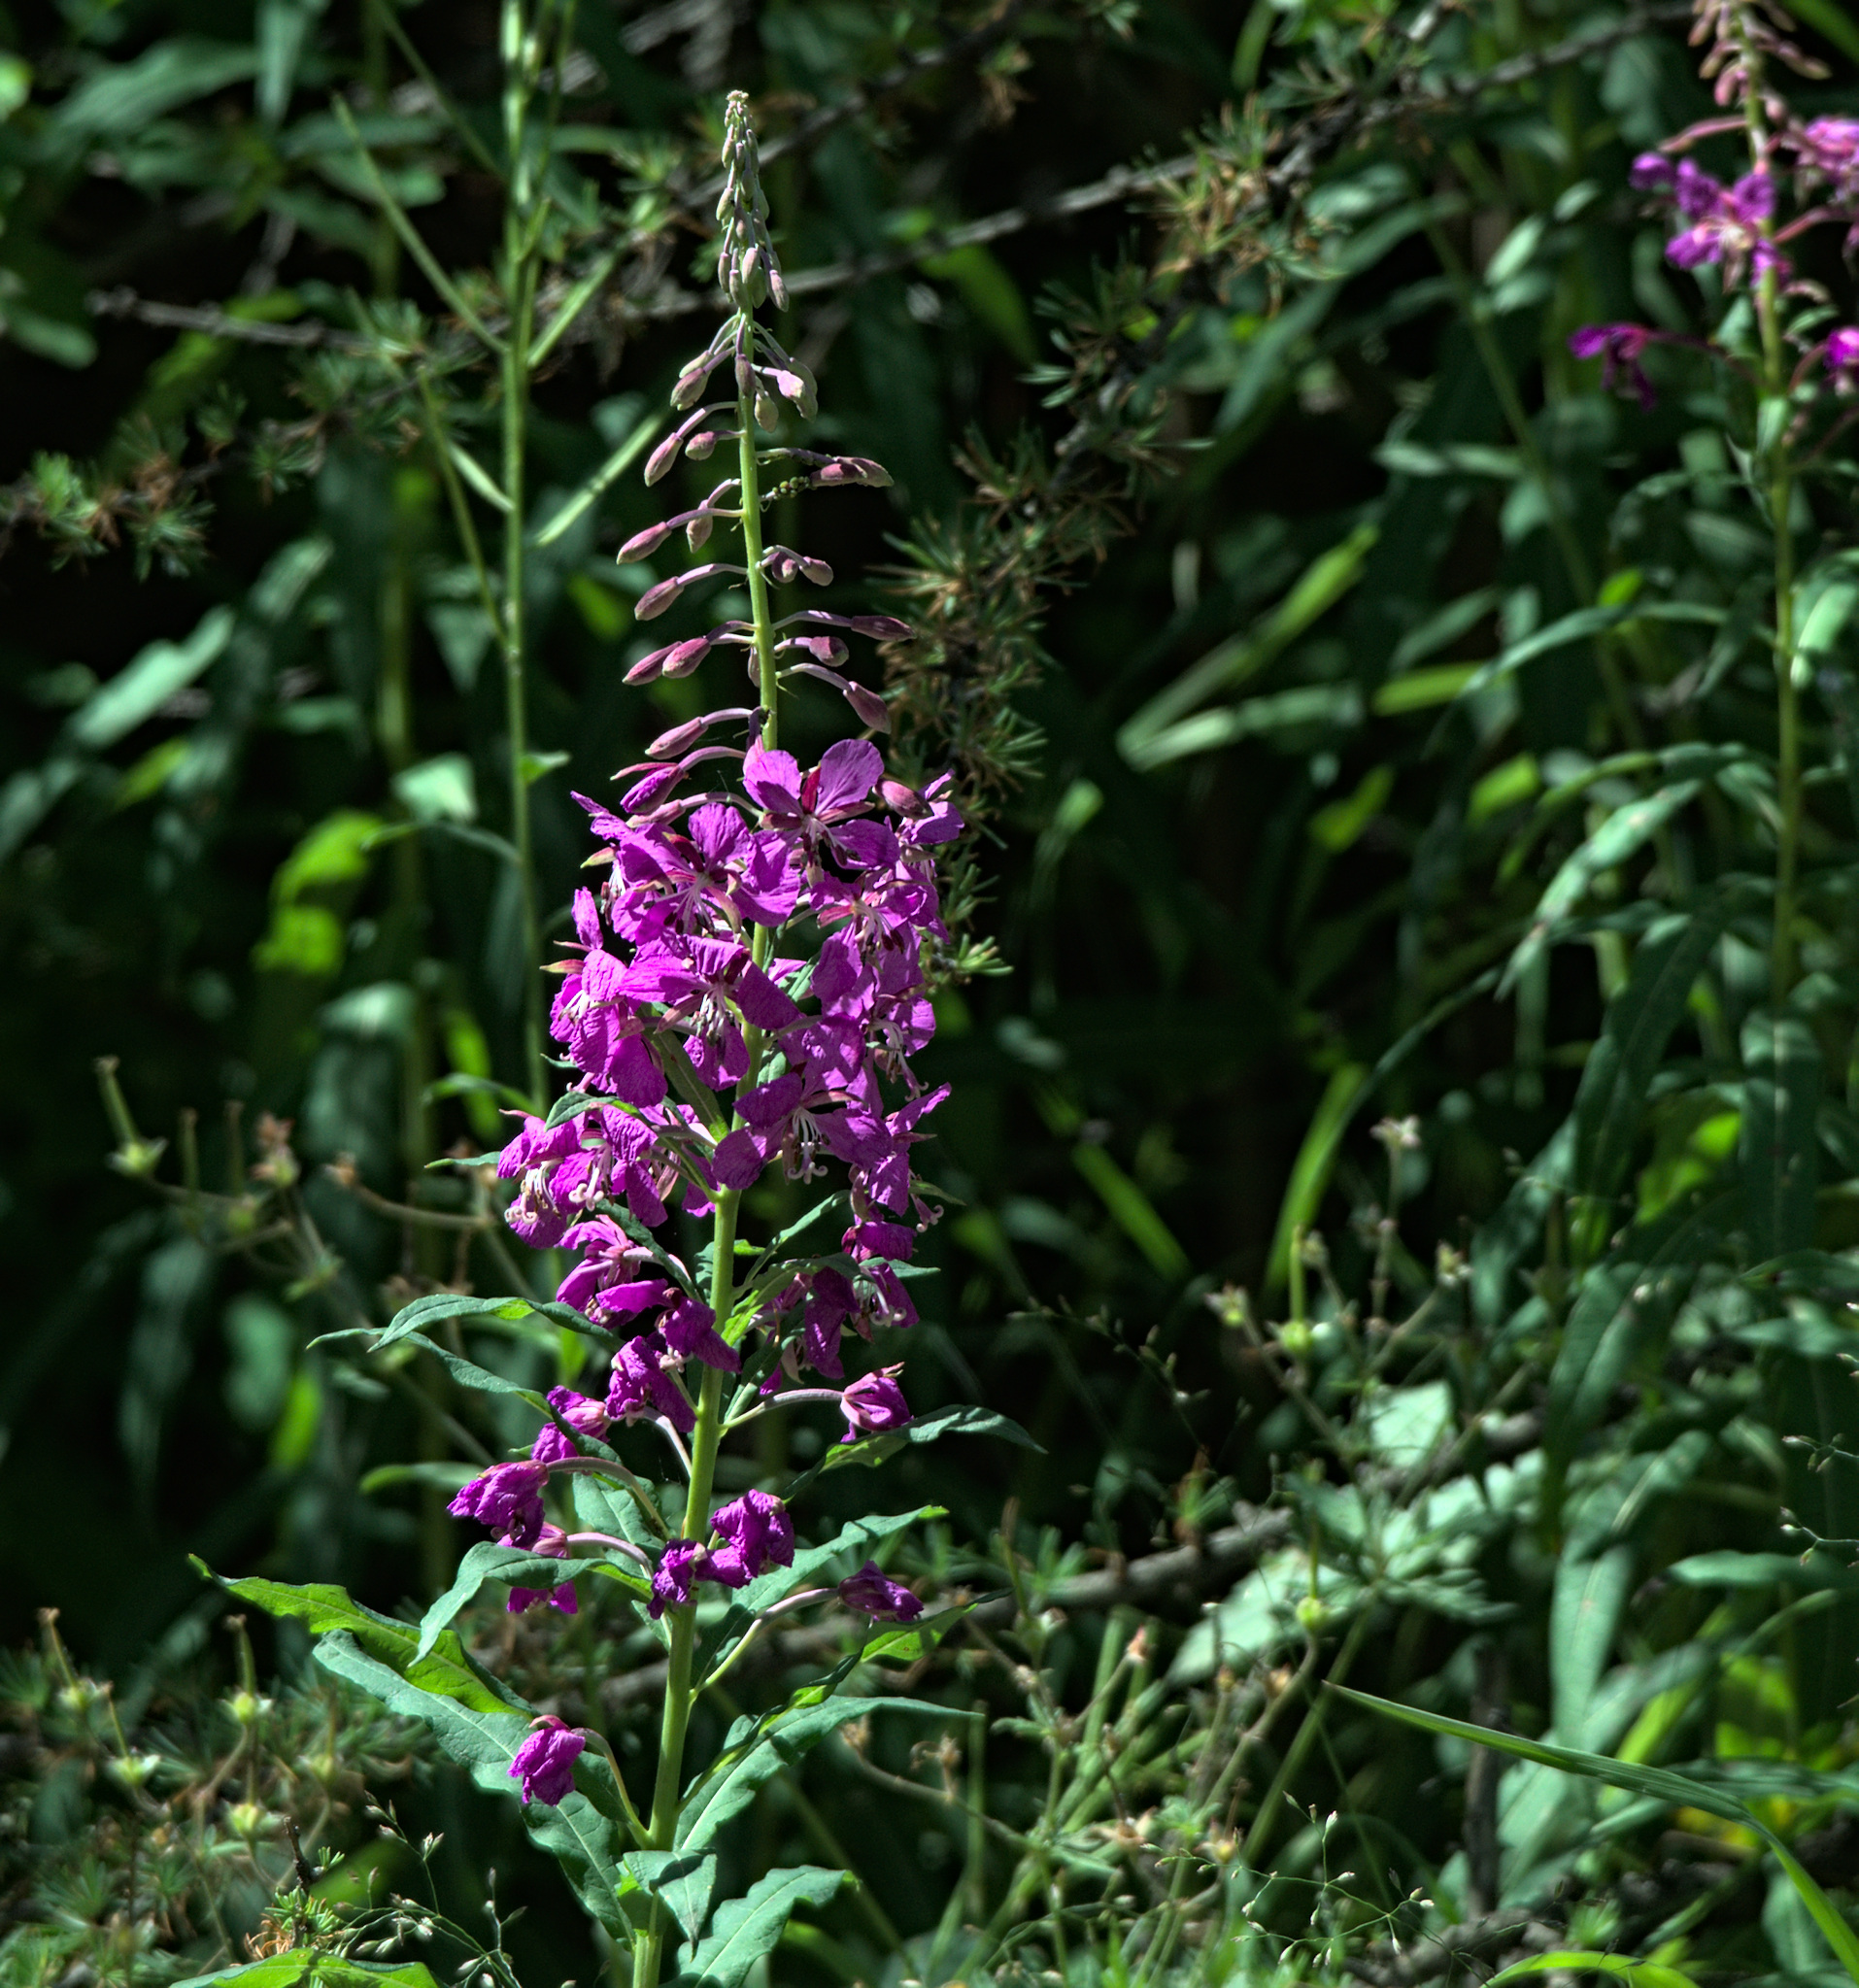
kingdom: Plantae
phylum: Tracheophyta
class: Magnoliopsida
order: Myrtales
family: Onagraceae
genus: Chamaenerion
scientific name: Chamaenerion angustifolium
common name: Fireweed
